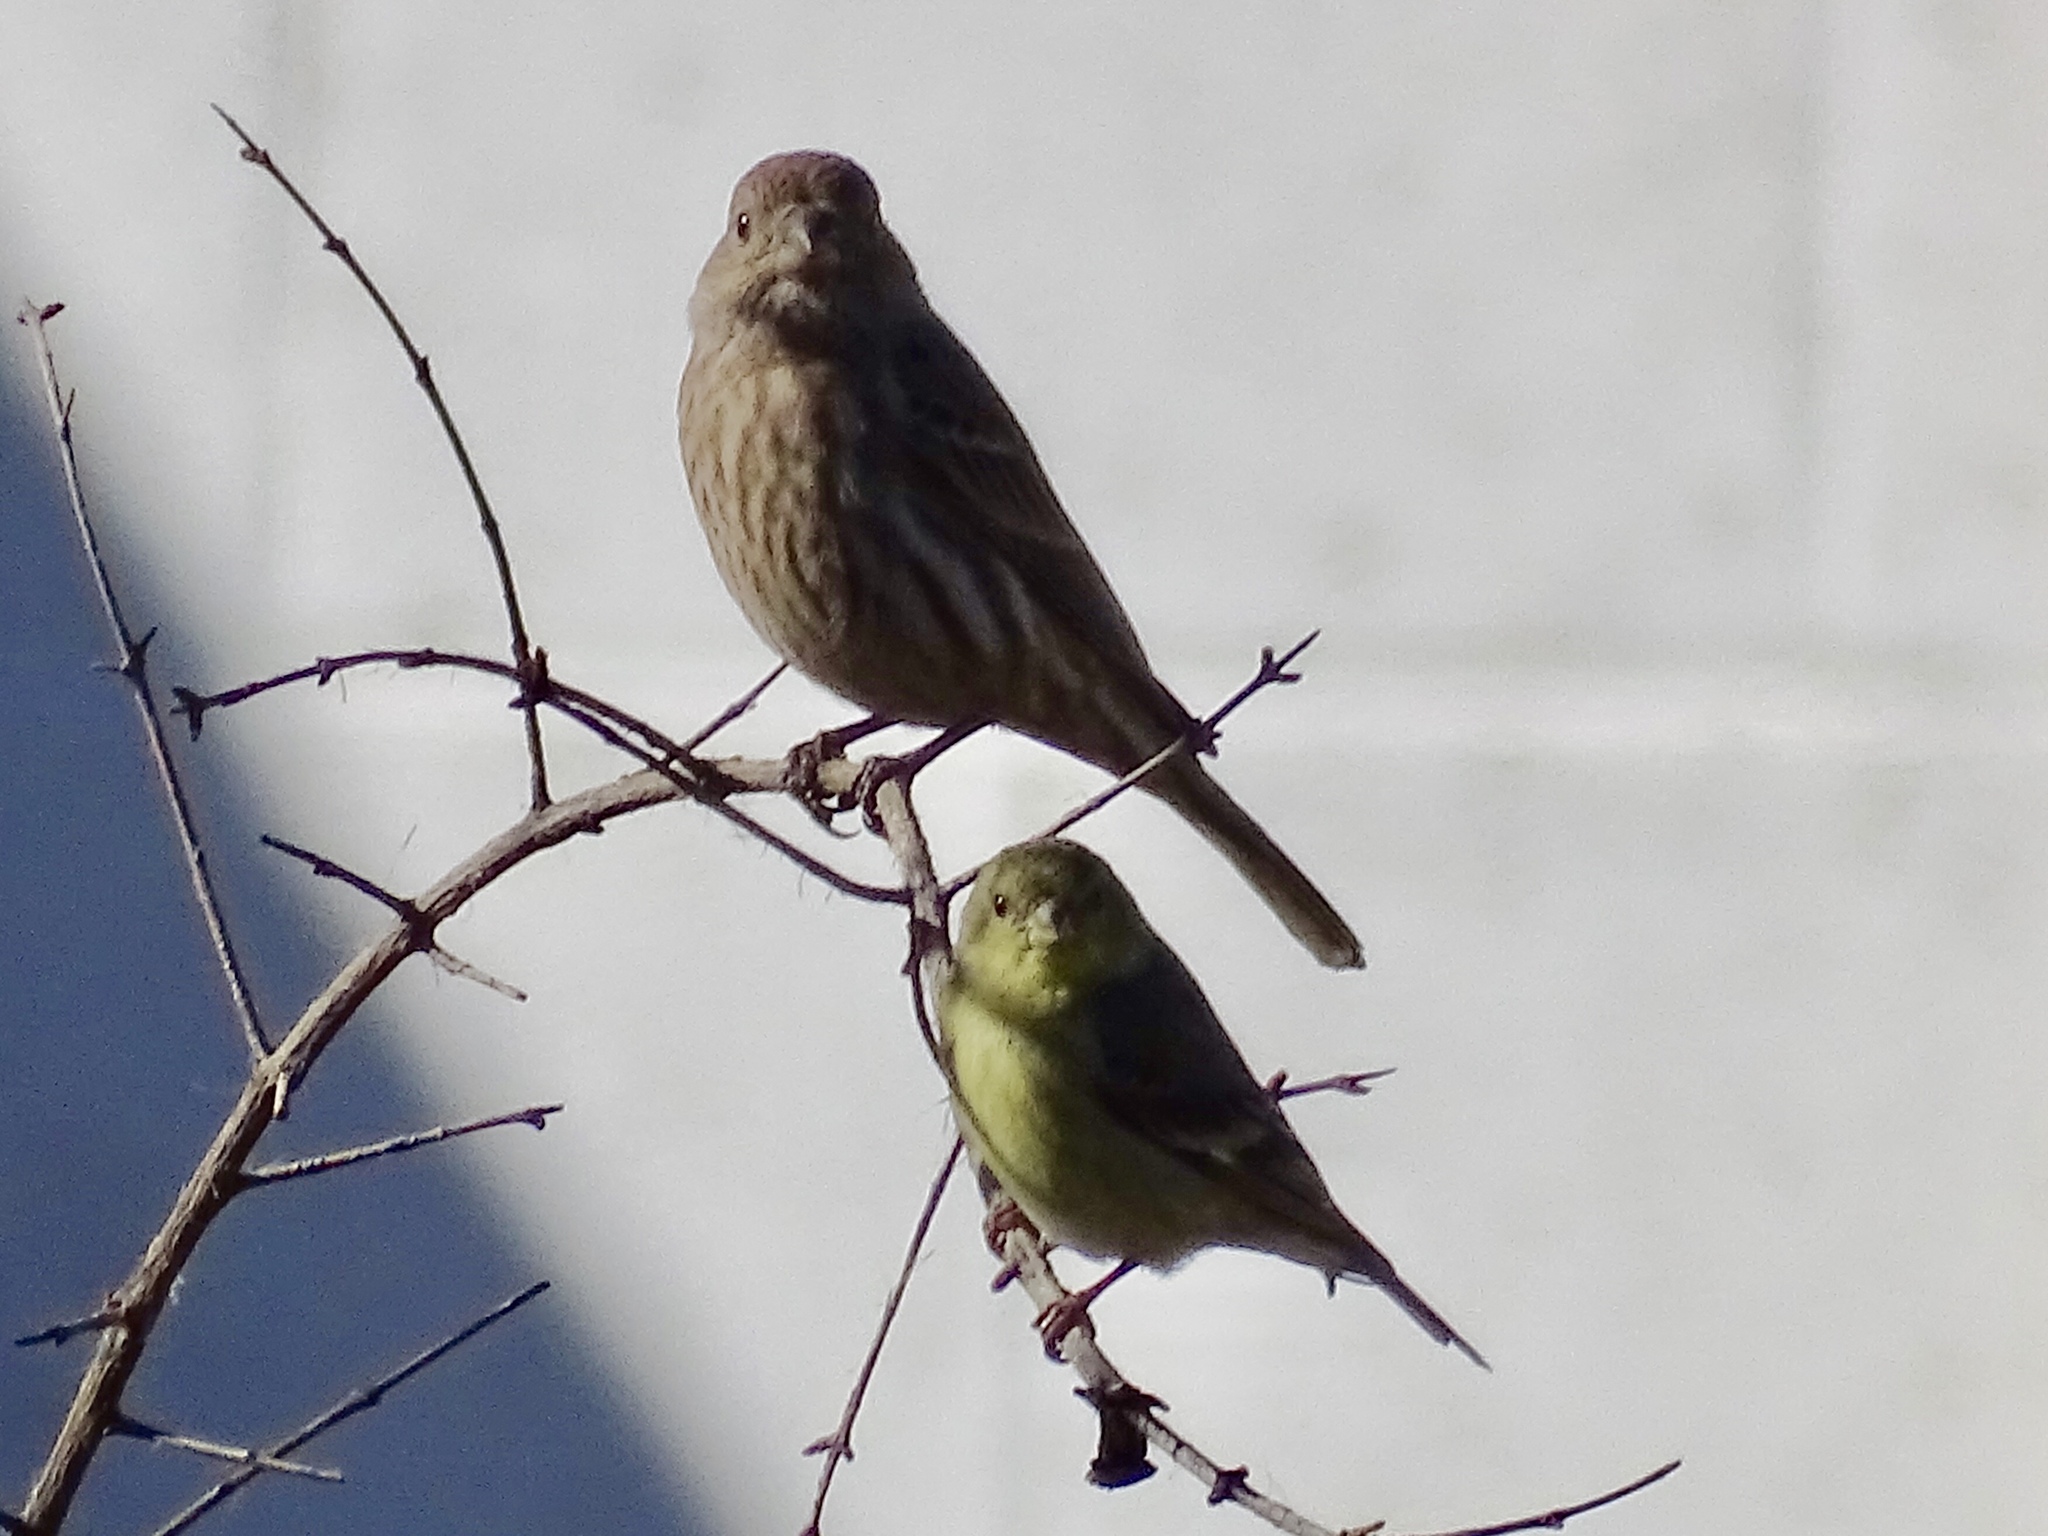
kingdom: Animalia
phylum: Chordata
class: Aves
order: Passeriformes
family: Fringillidae
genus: Spinus
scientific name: Spinus psaltria
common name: Lesser goldfinch
